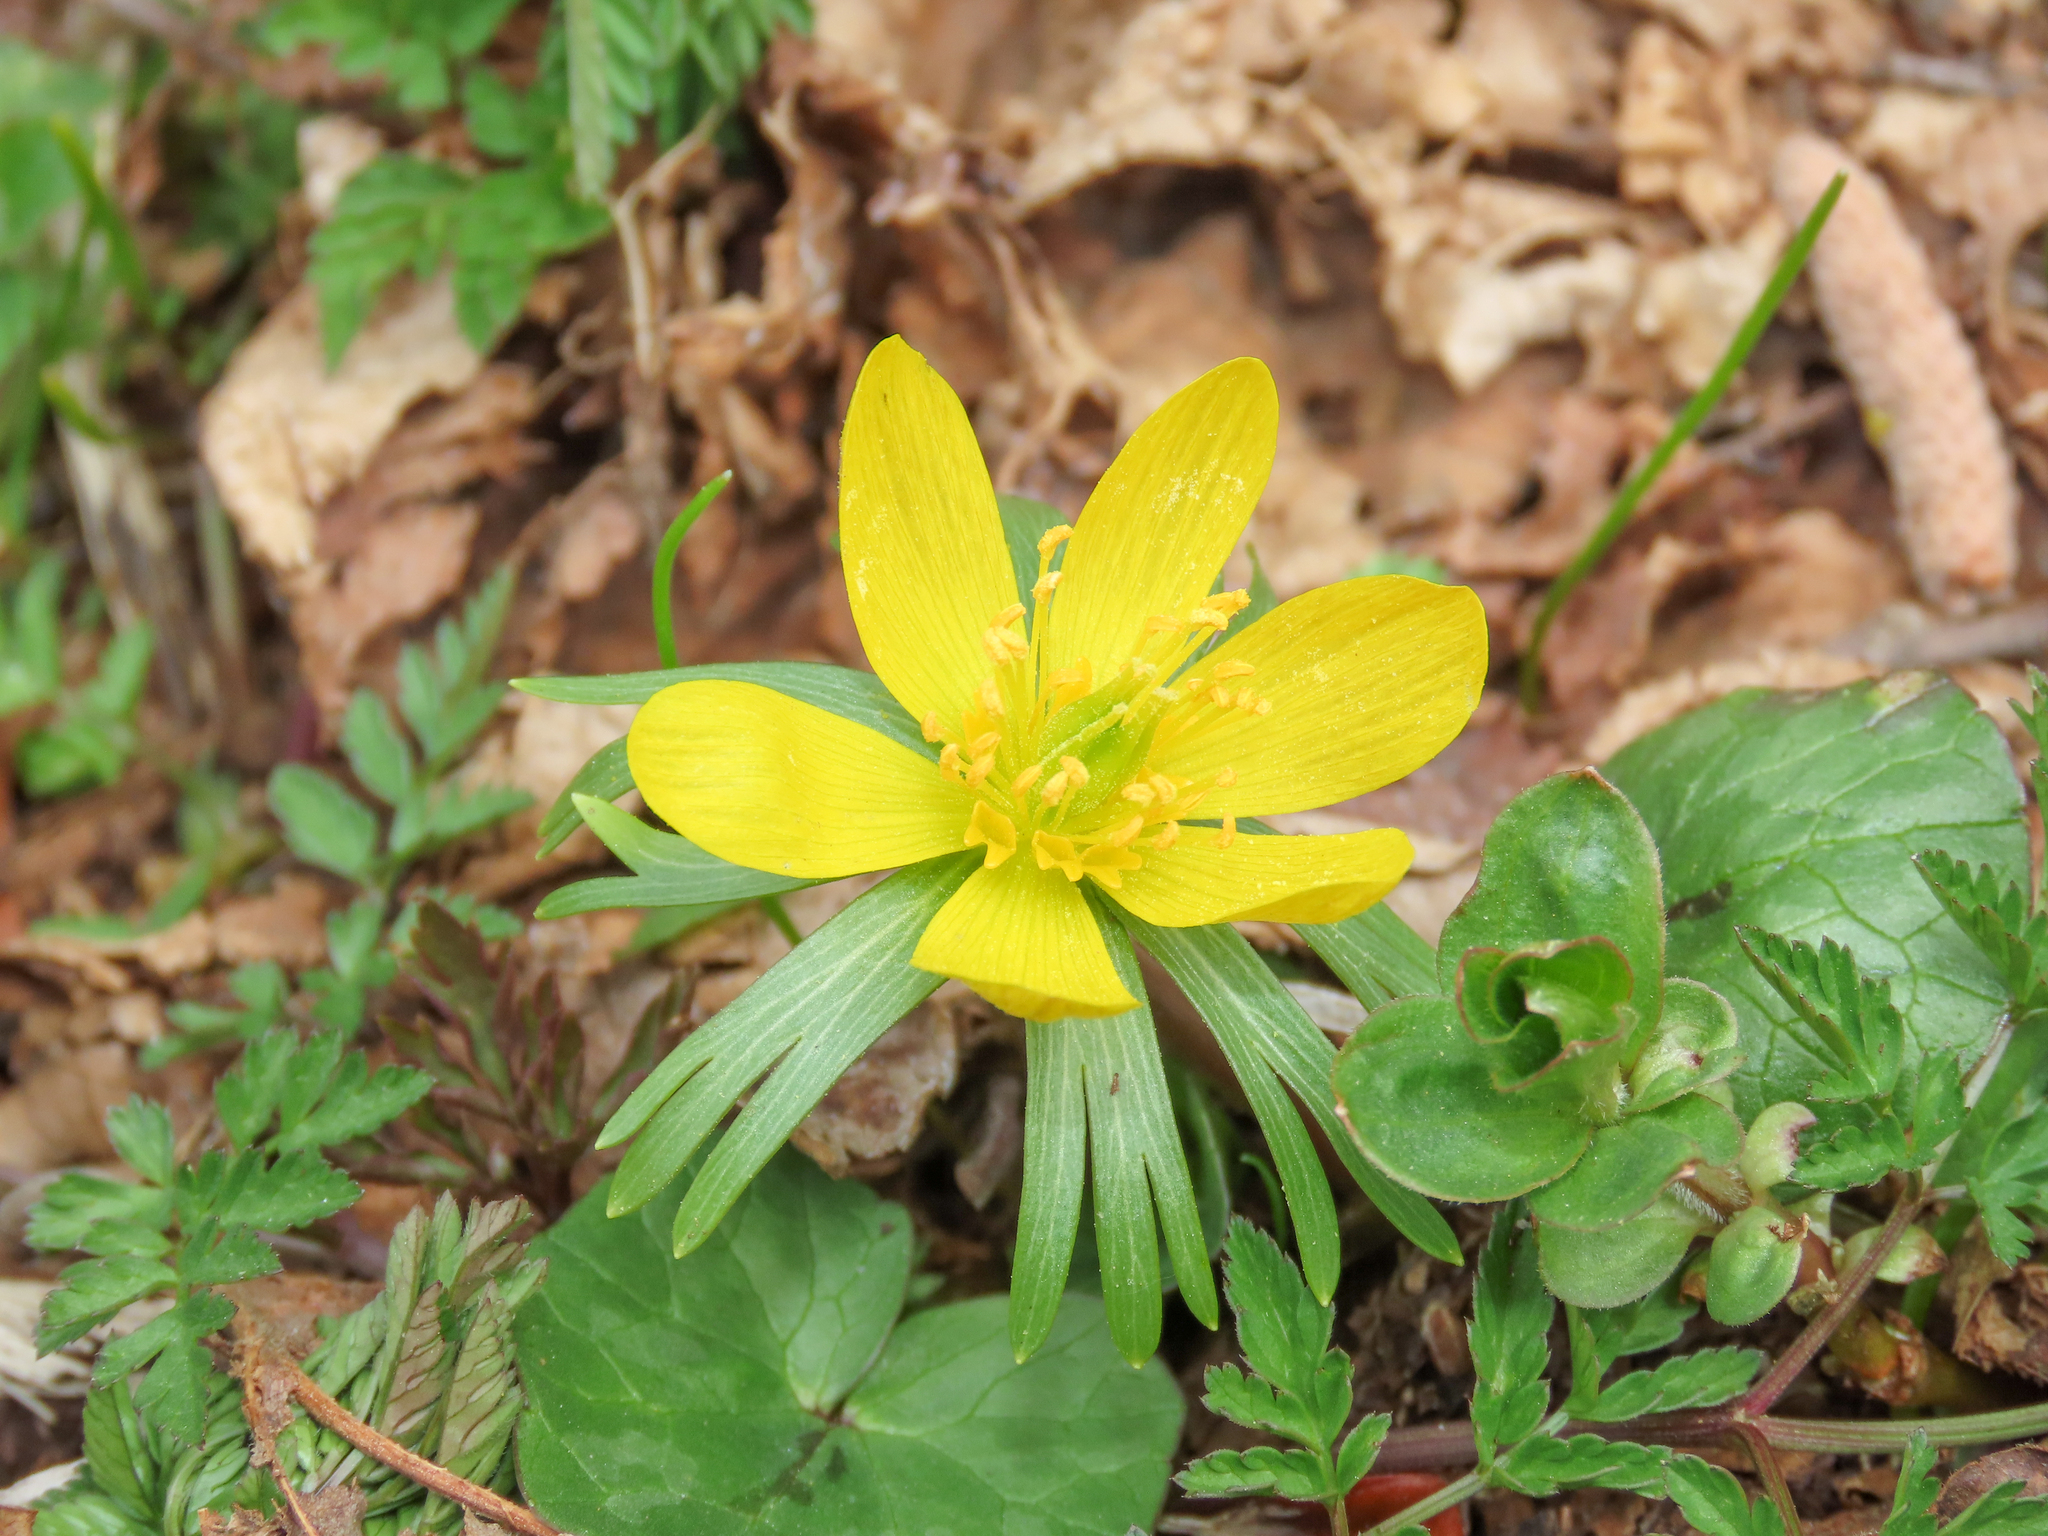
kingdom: Plantae
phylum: Tracheophyta
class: Magnoliopsida
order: Ranunculales
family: Ranunculaceae
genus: Eranthis
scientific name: Eranthis hyemalis
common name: Winter aconite
